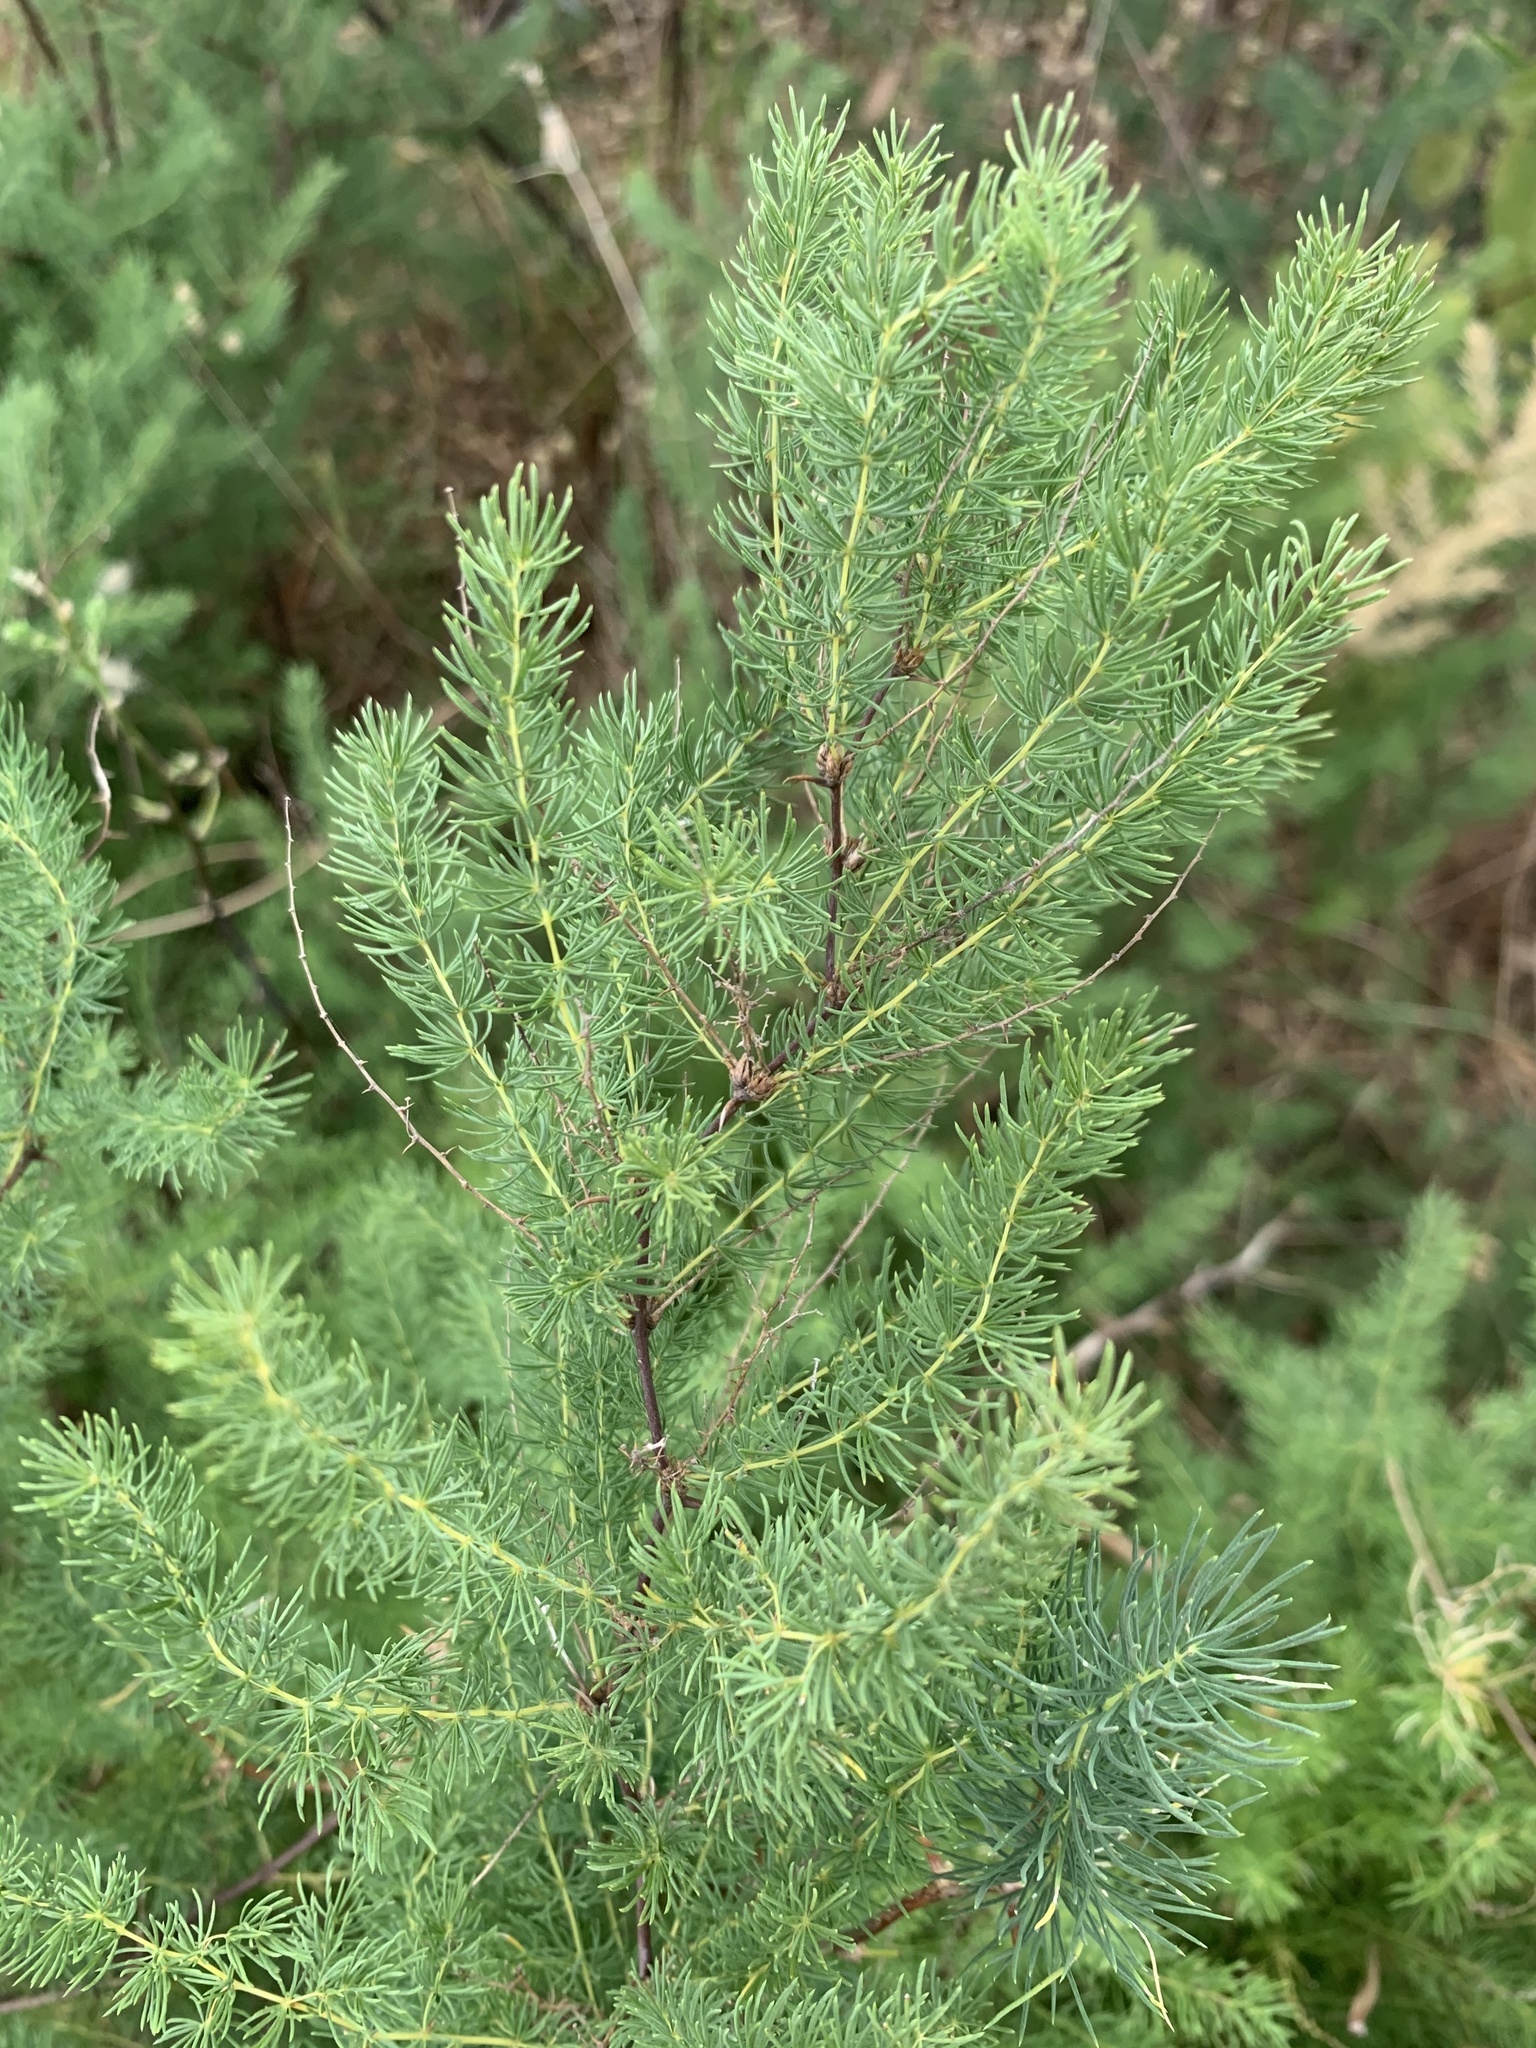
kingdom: Plantae
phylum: Tracheophyta
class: Liliopsida
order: Asparagales
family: Asparagaceae
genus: Asparagus
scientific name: Asparagus rubicundus
